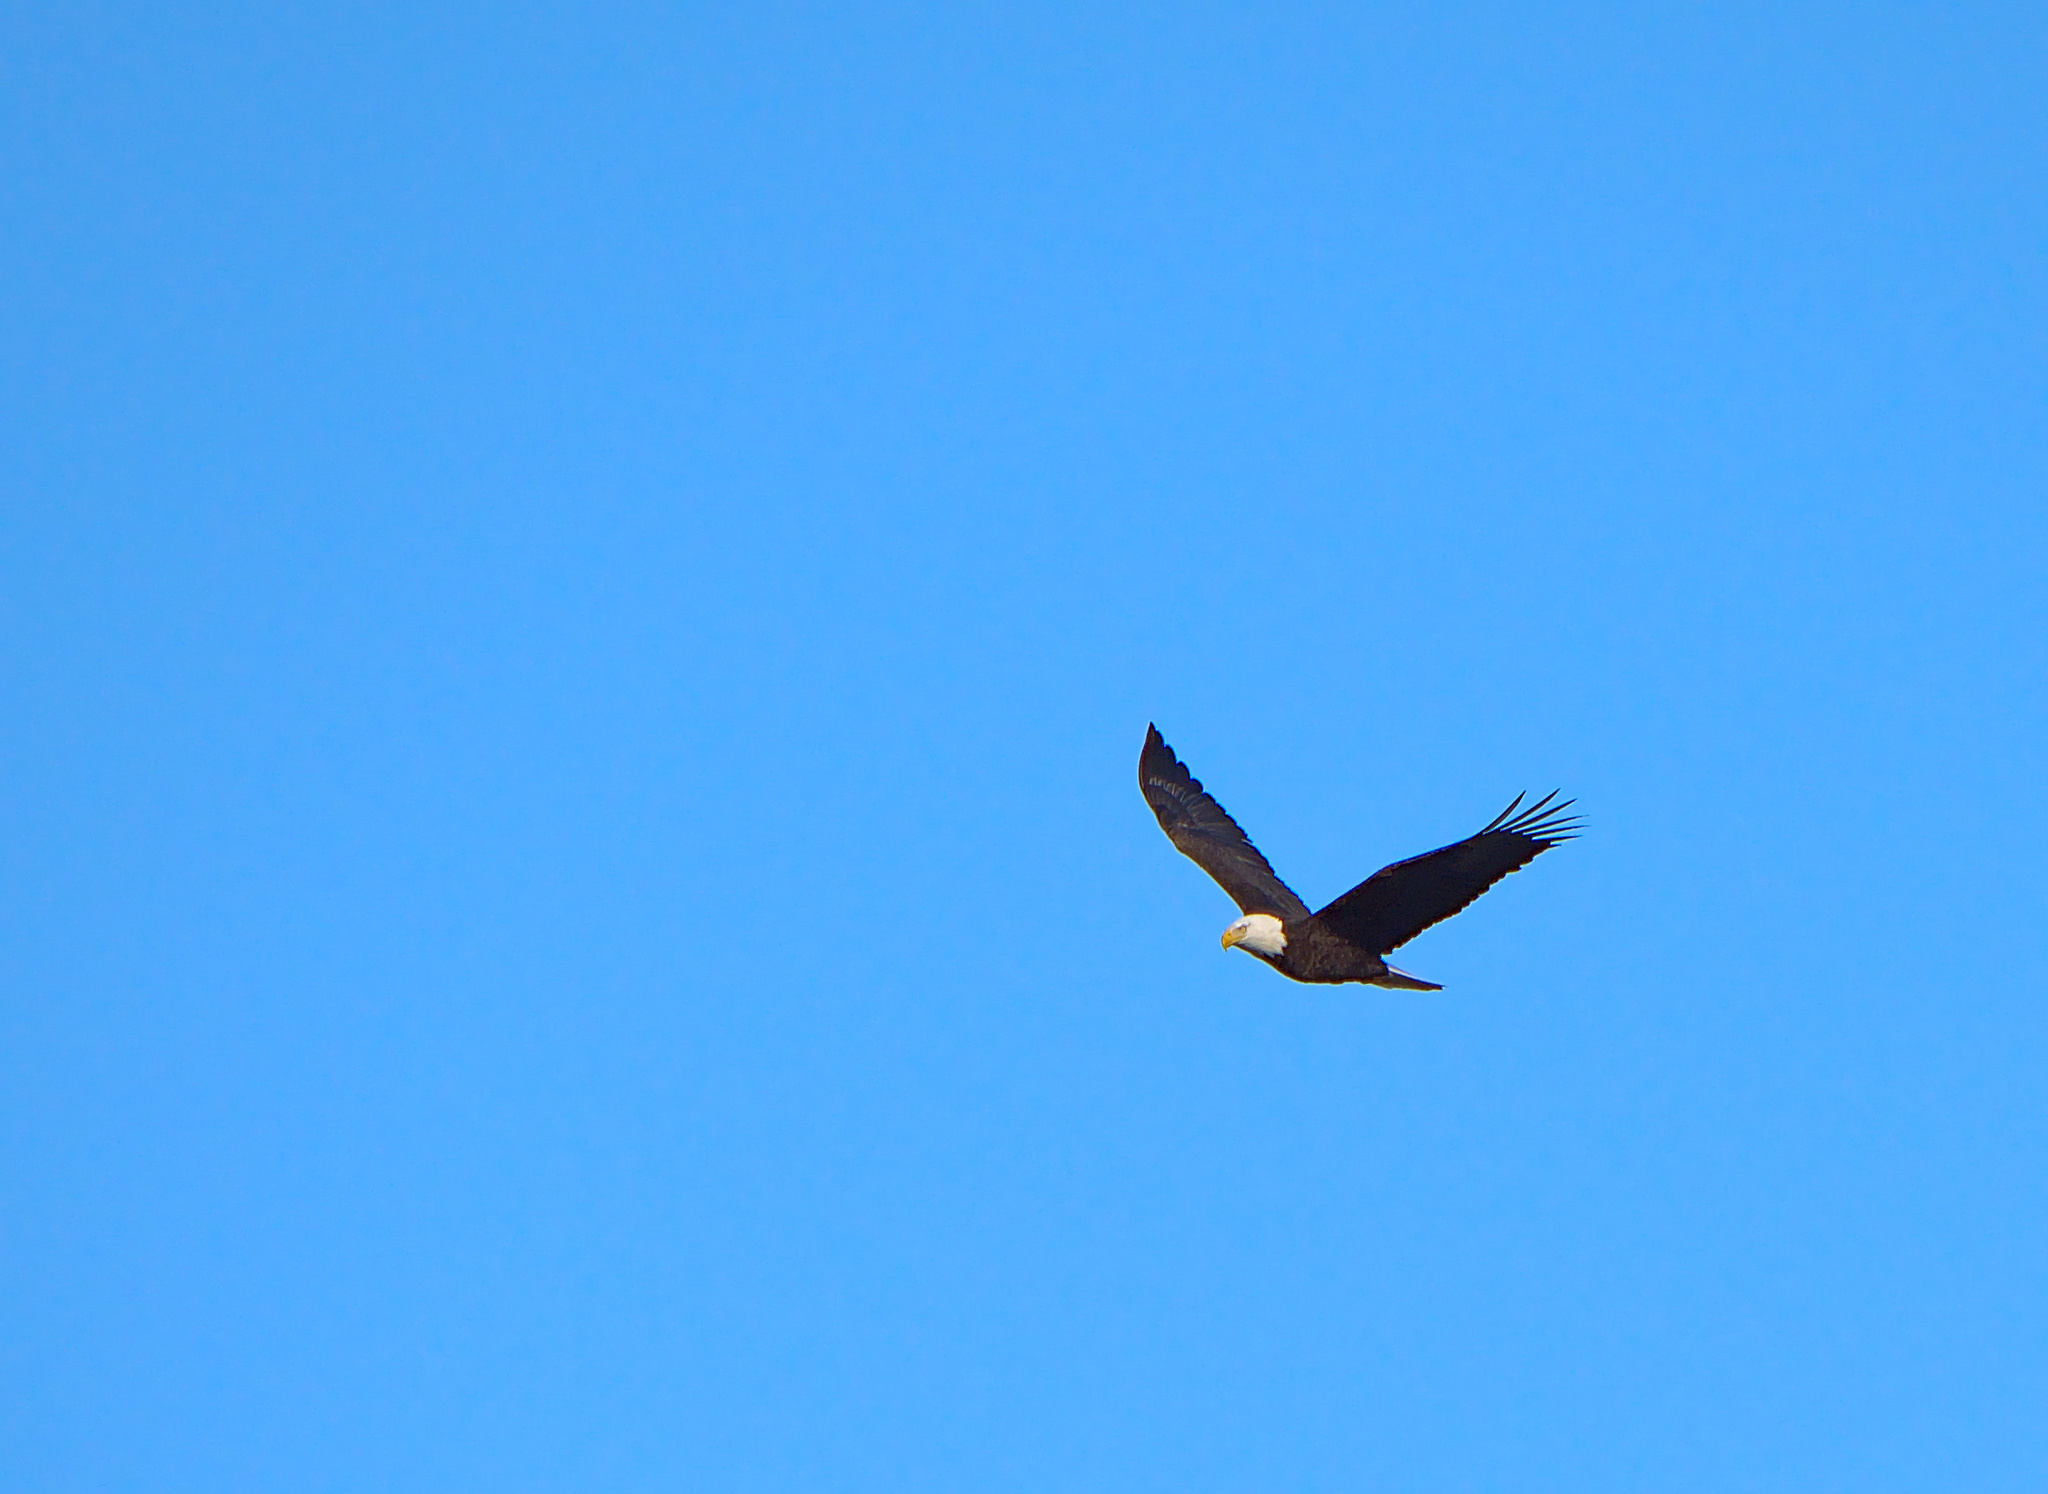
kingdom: Animalia
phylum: Chordata
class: Aves
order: Accipitriformes
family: Accipitridae
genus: Haliaeetus
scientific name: Haliaeetus leucocephalus
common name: Bald eagle
